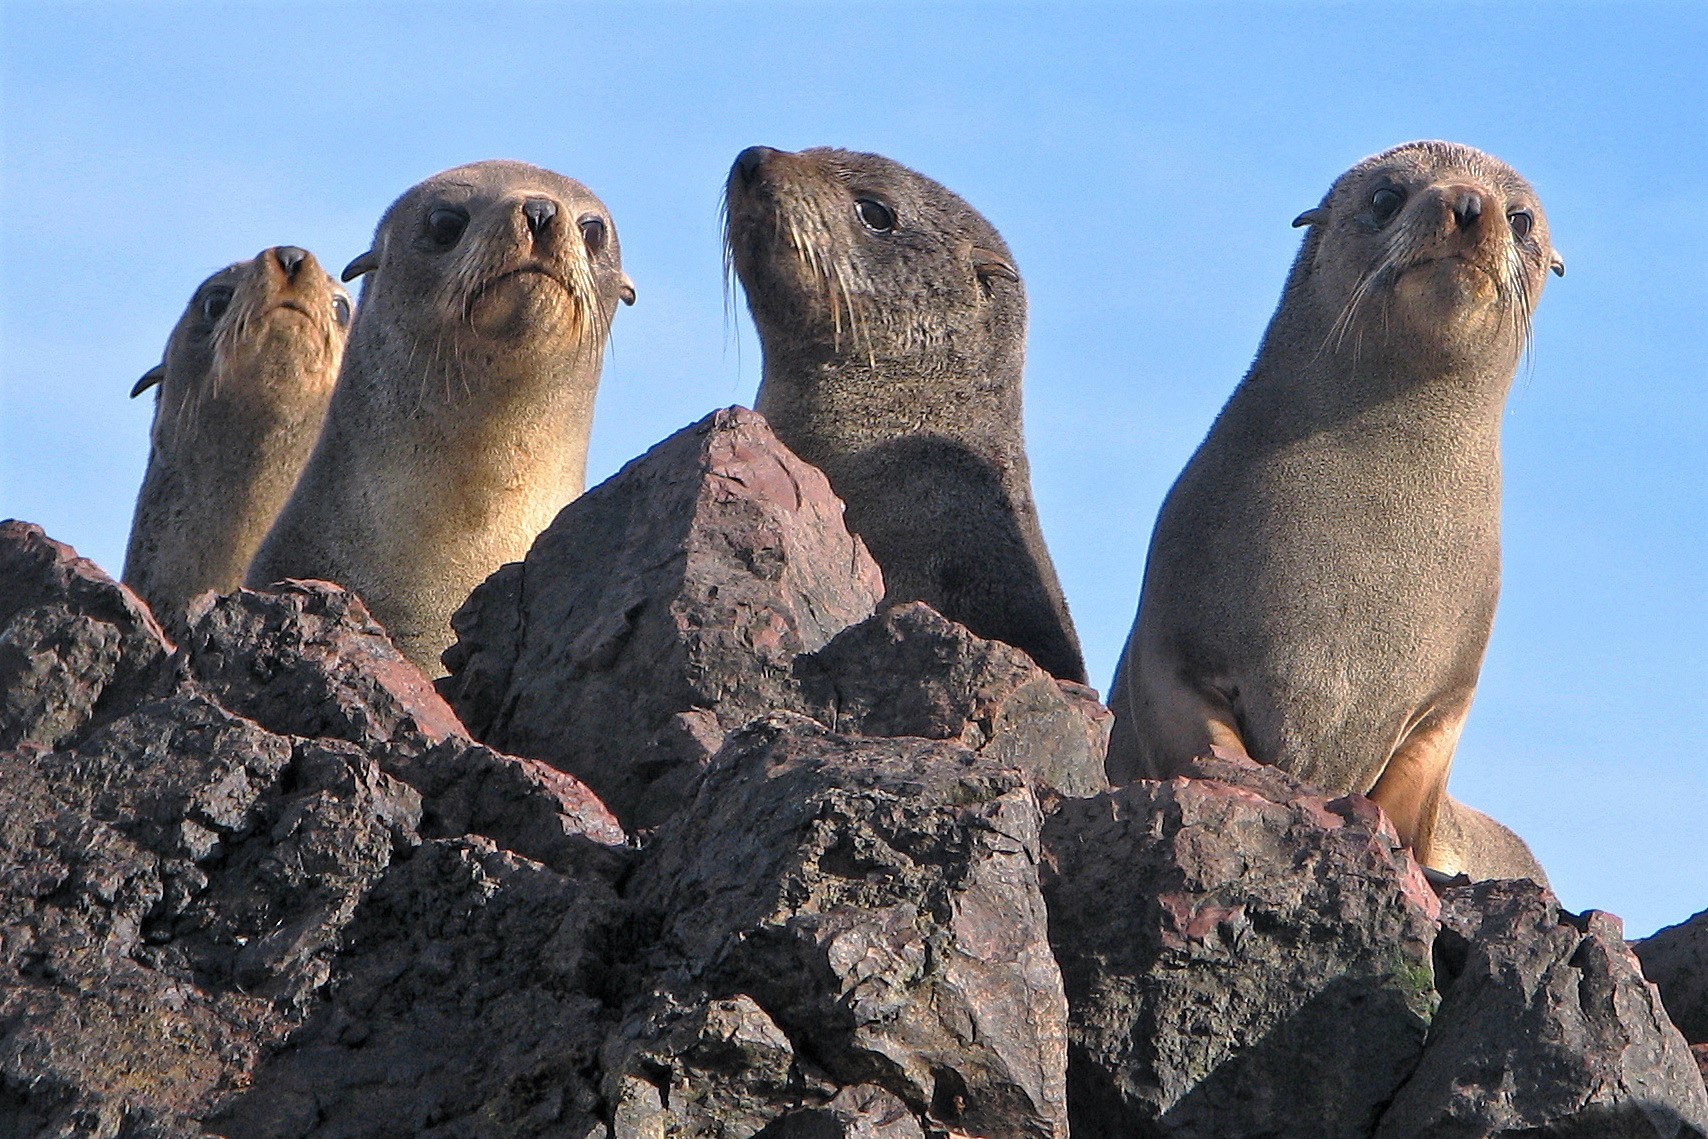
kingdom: Animalia
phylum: Chordata
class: Mammalia
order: Carnivora
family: Otariidae
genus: Arctocephalus
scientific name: Arctocephalus australis
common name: South american fur seal
